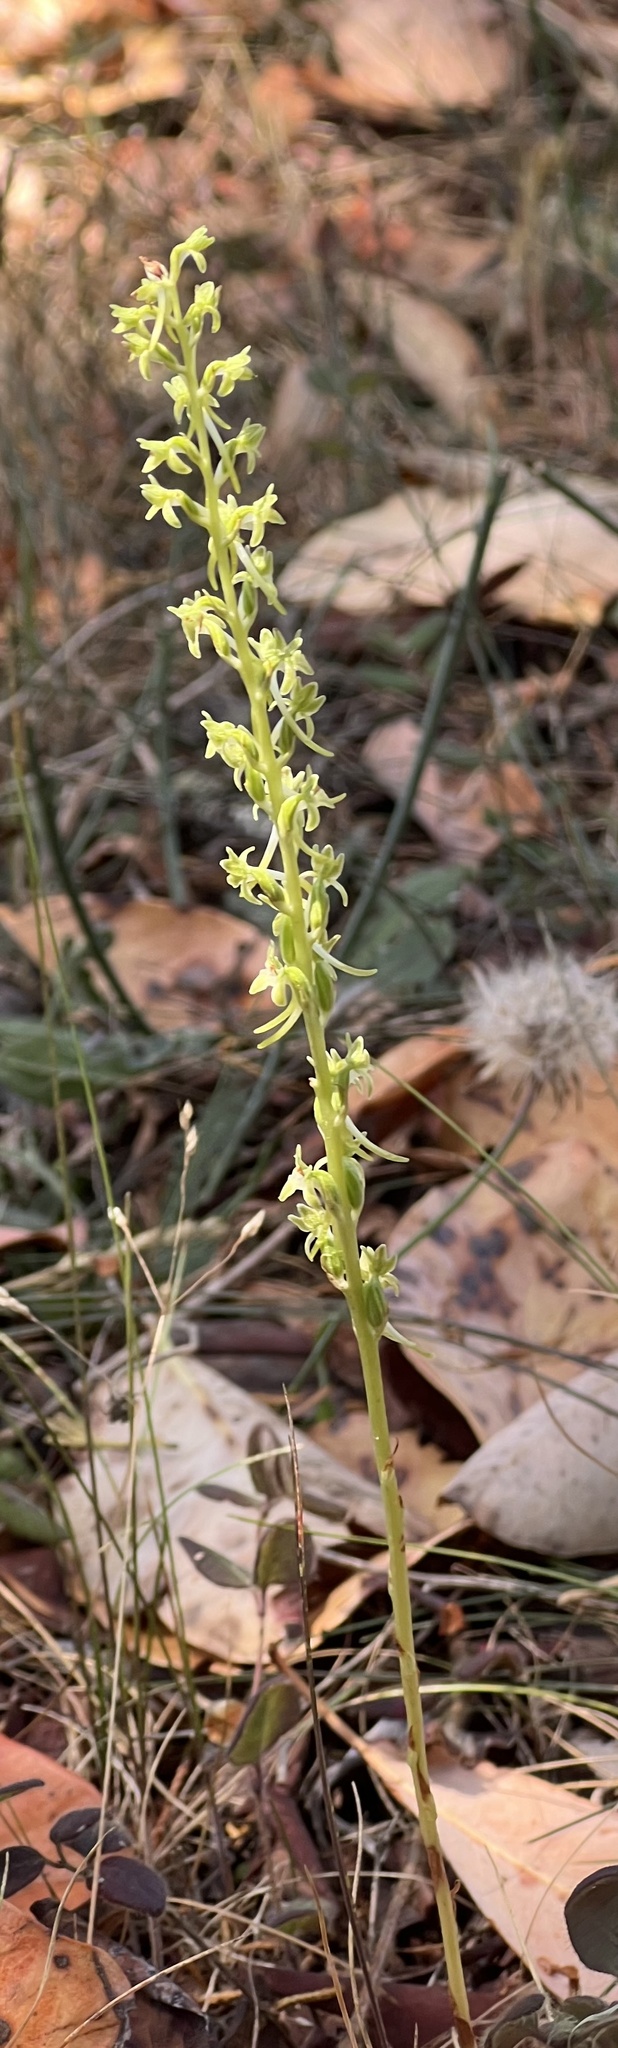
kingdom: Plantae
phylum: Tracheophyta
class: Liliopsida
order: Asparagales
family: Orchidaceae
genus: Platanthera
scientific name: Platanthera elongata
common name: Dense-flowered rein orchid
